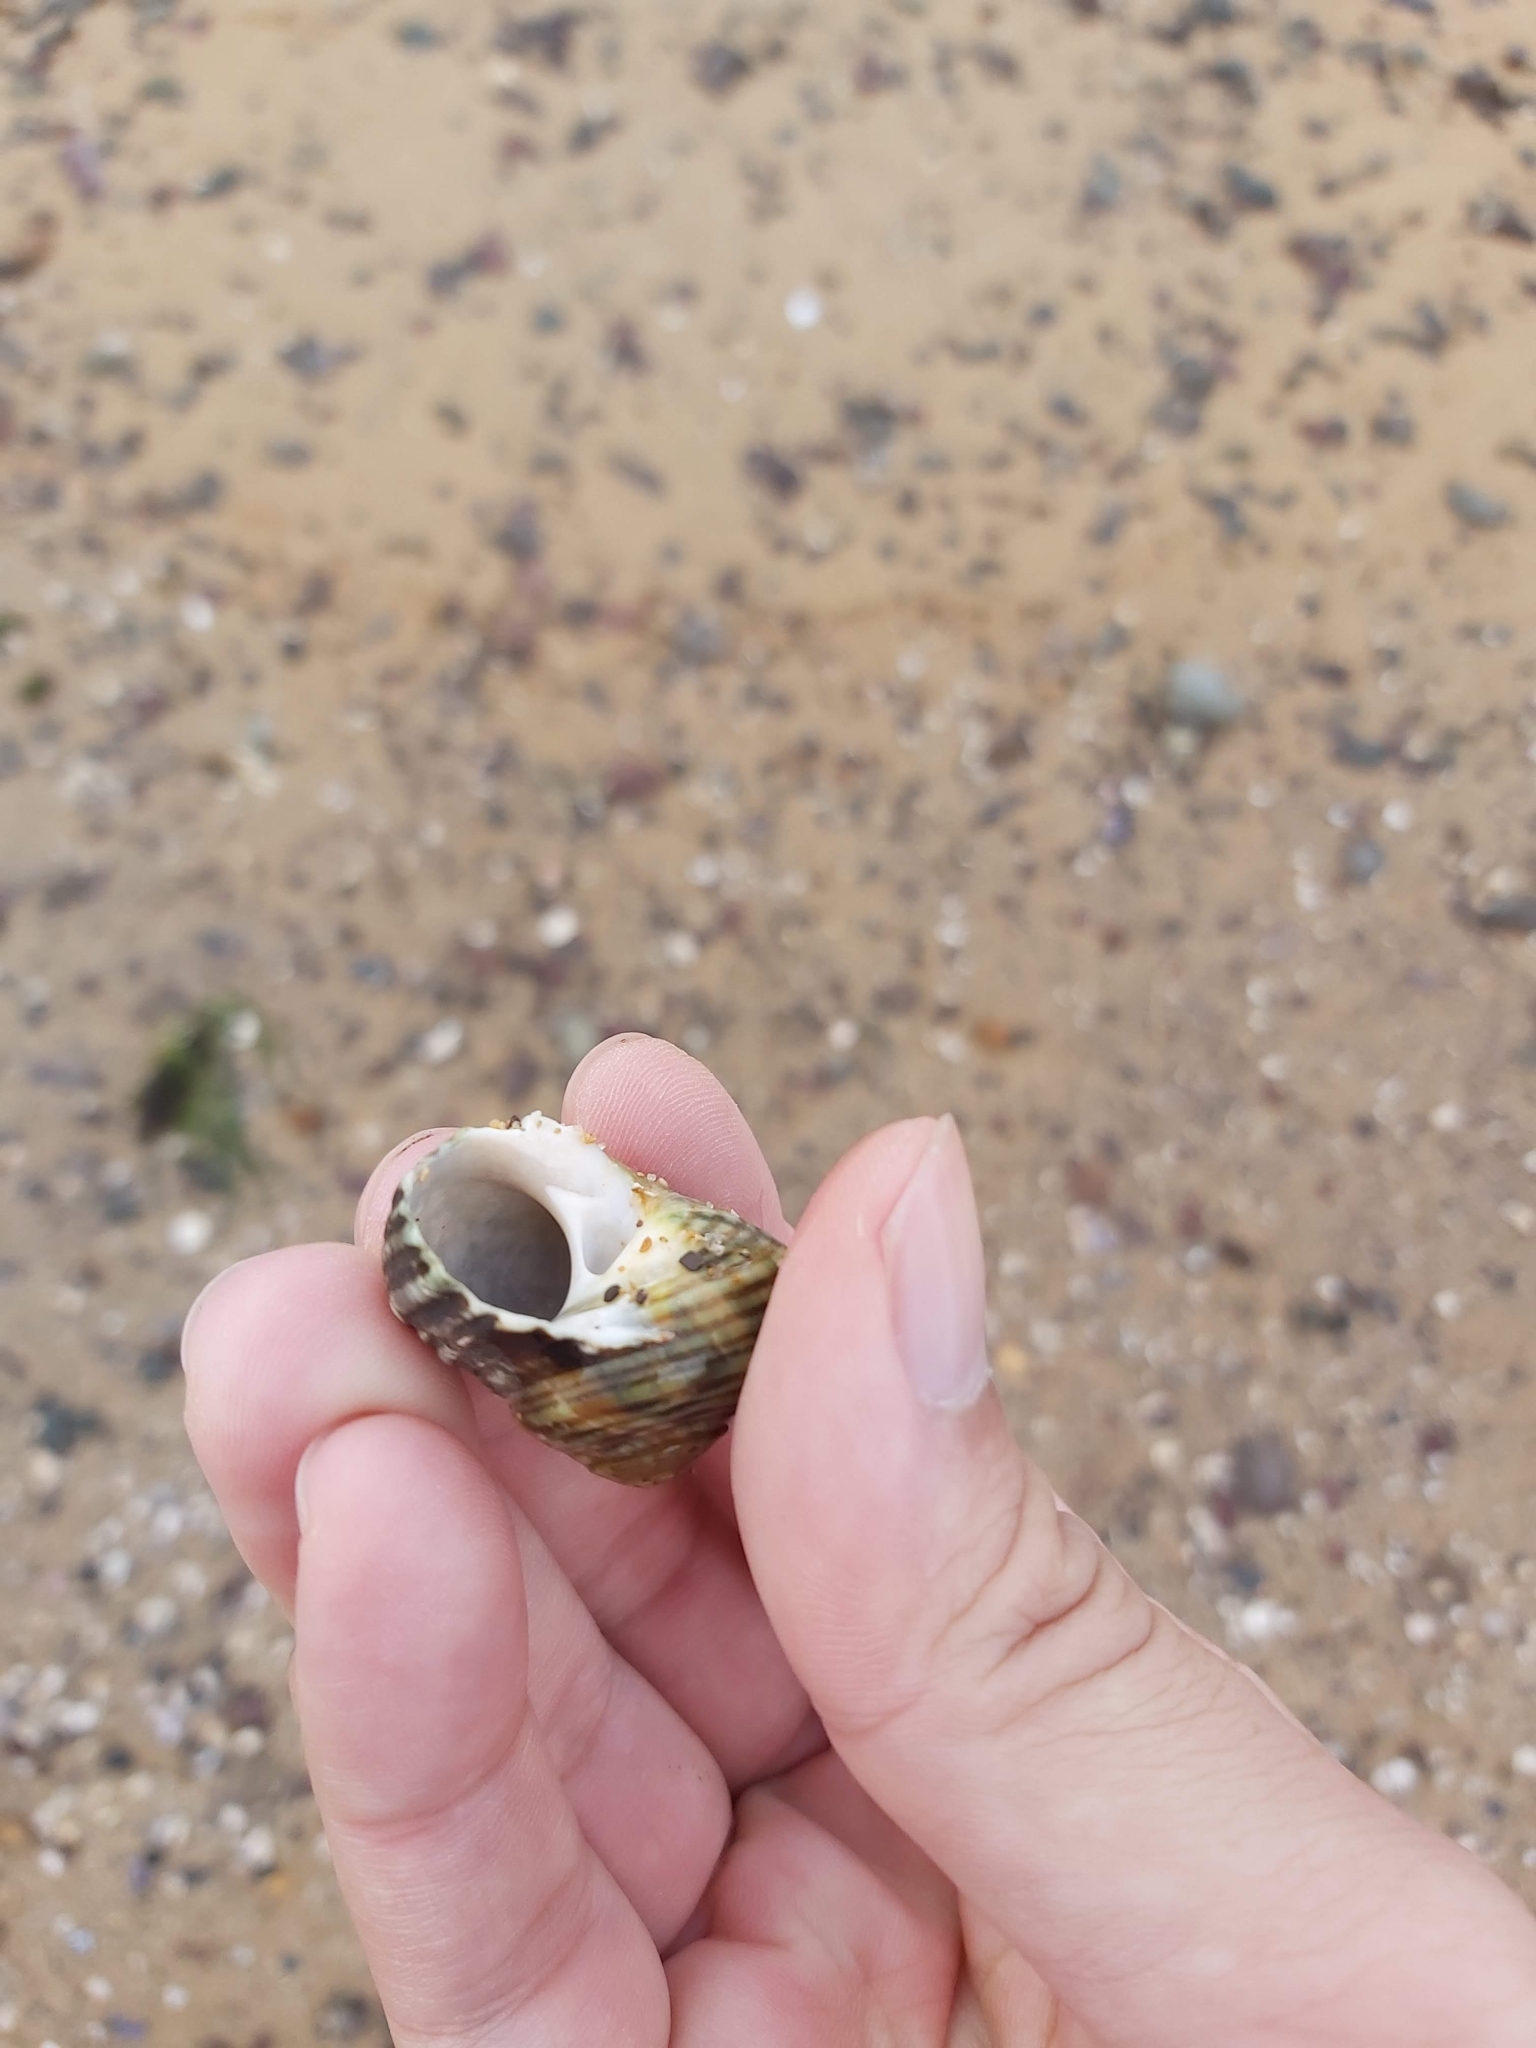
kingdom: Animalia
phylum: Mollusca
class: Gastropoda
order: Trochida
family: Turbinidae
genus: Lunella
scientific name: Lunella undulata
